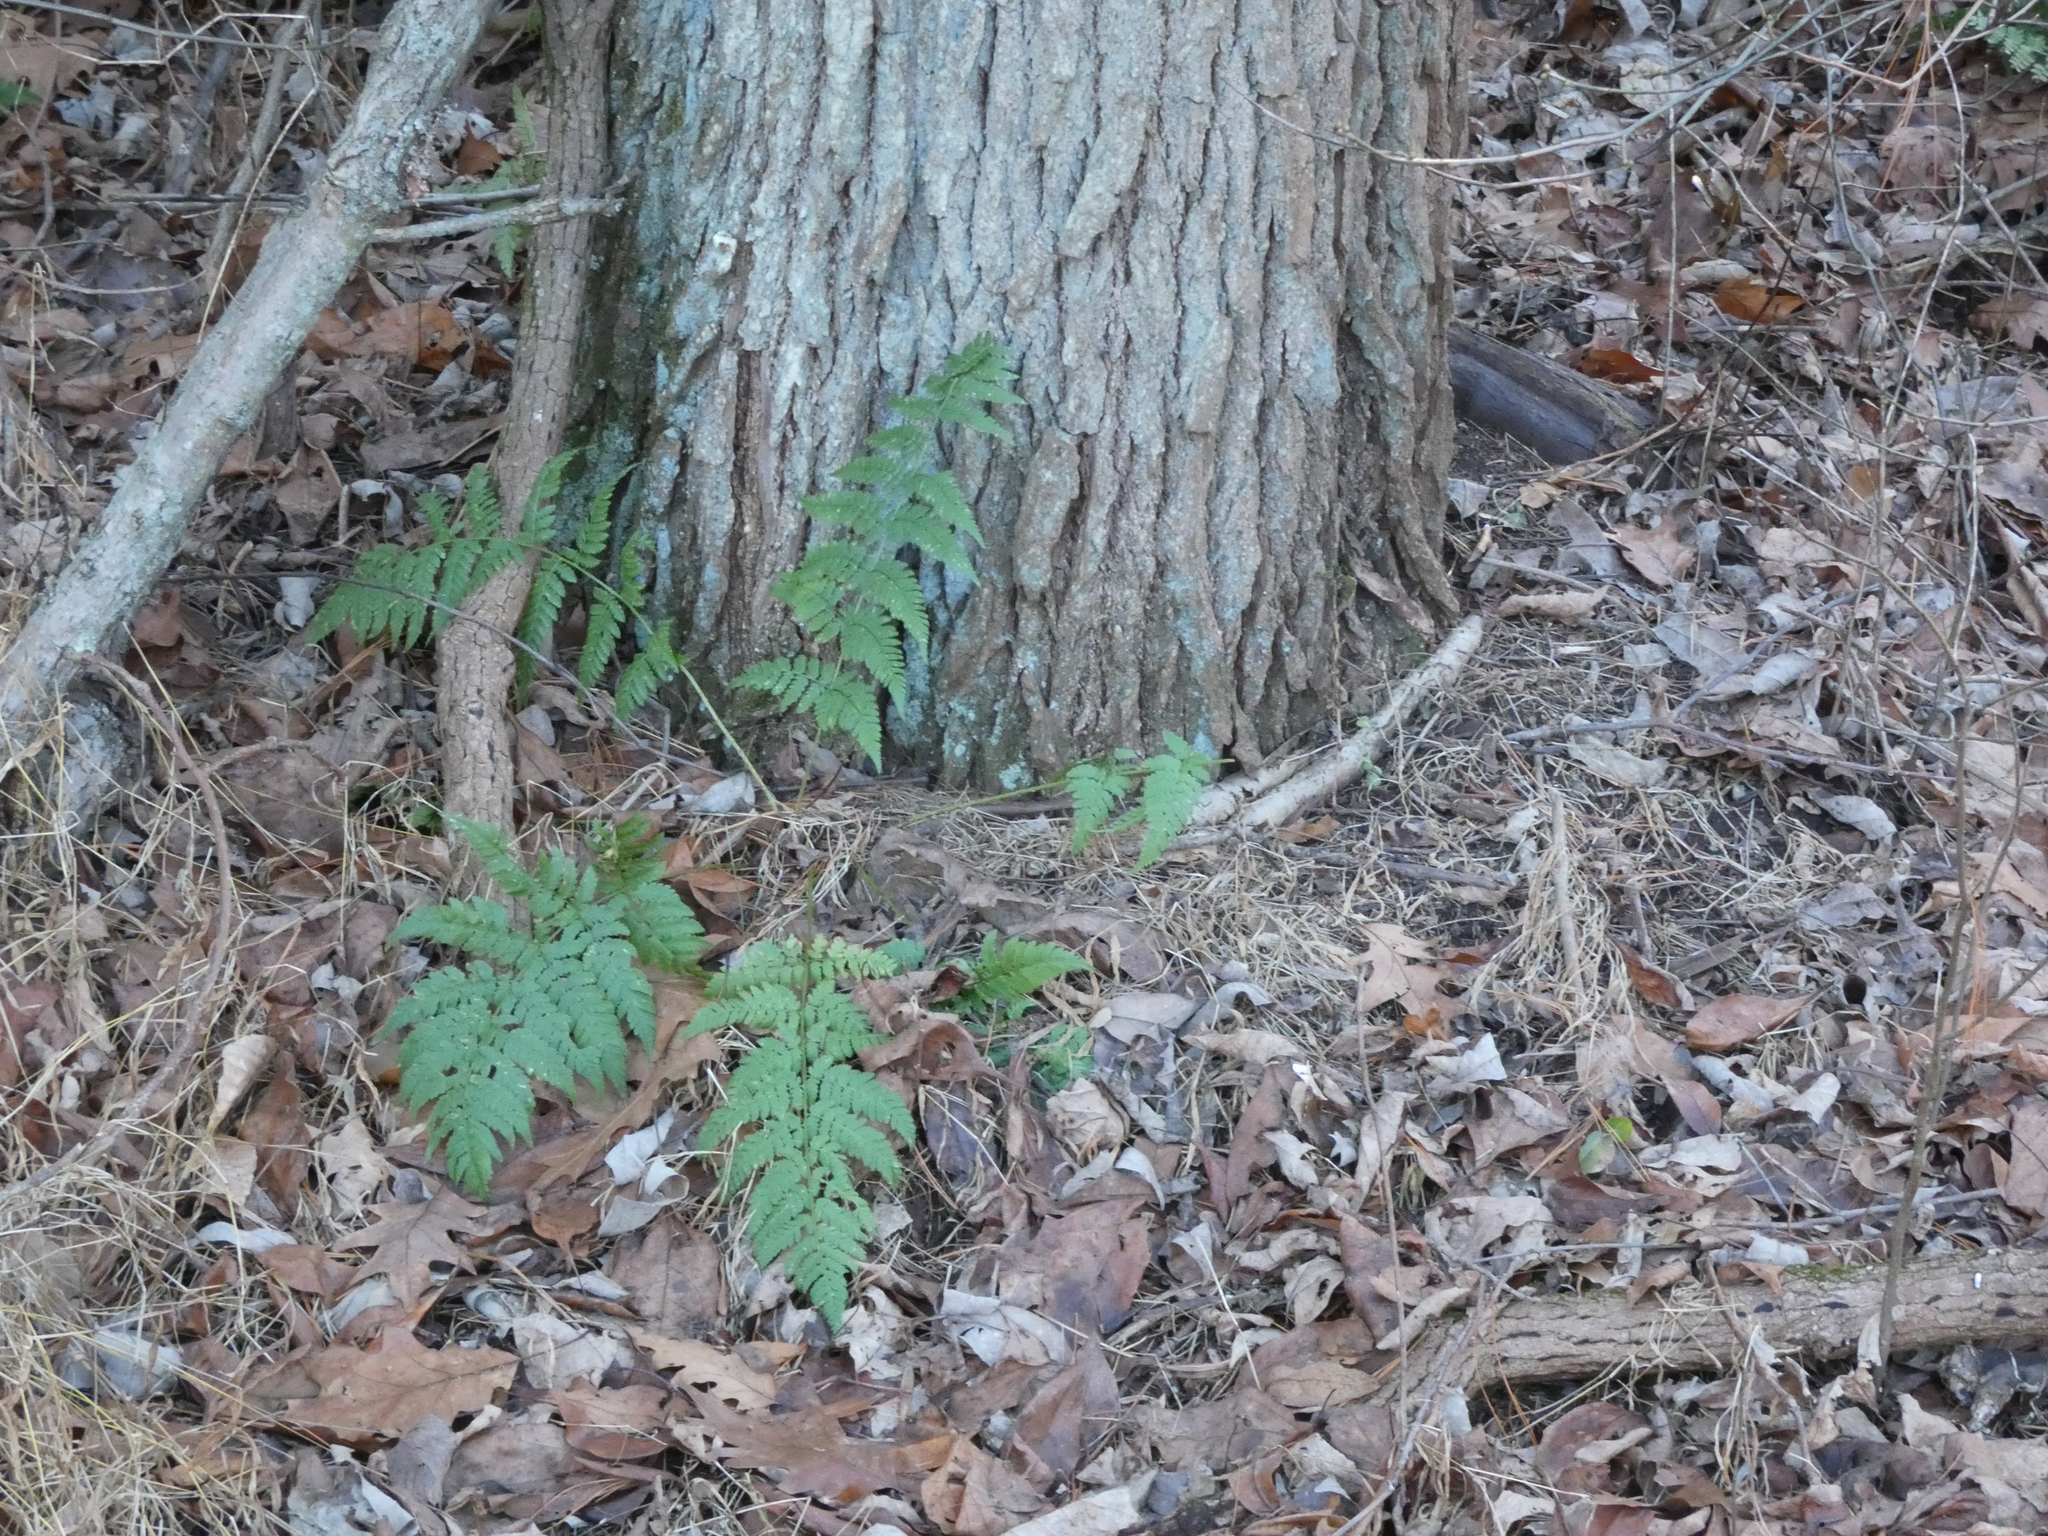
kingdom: Plantae
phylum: Tracheophyta
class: Polypodiopsida
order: Polypodiales
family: Dryopteridaceae
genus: Dryopteris
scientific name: Dryopteris intermedia
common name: Evergreen wood fern
